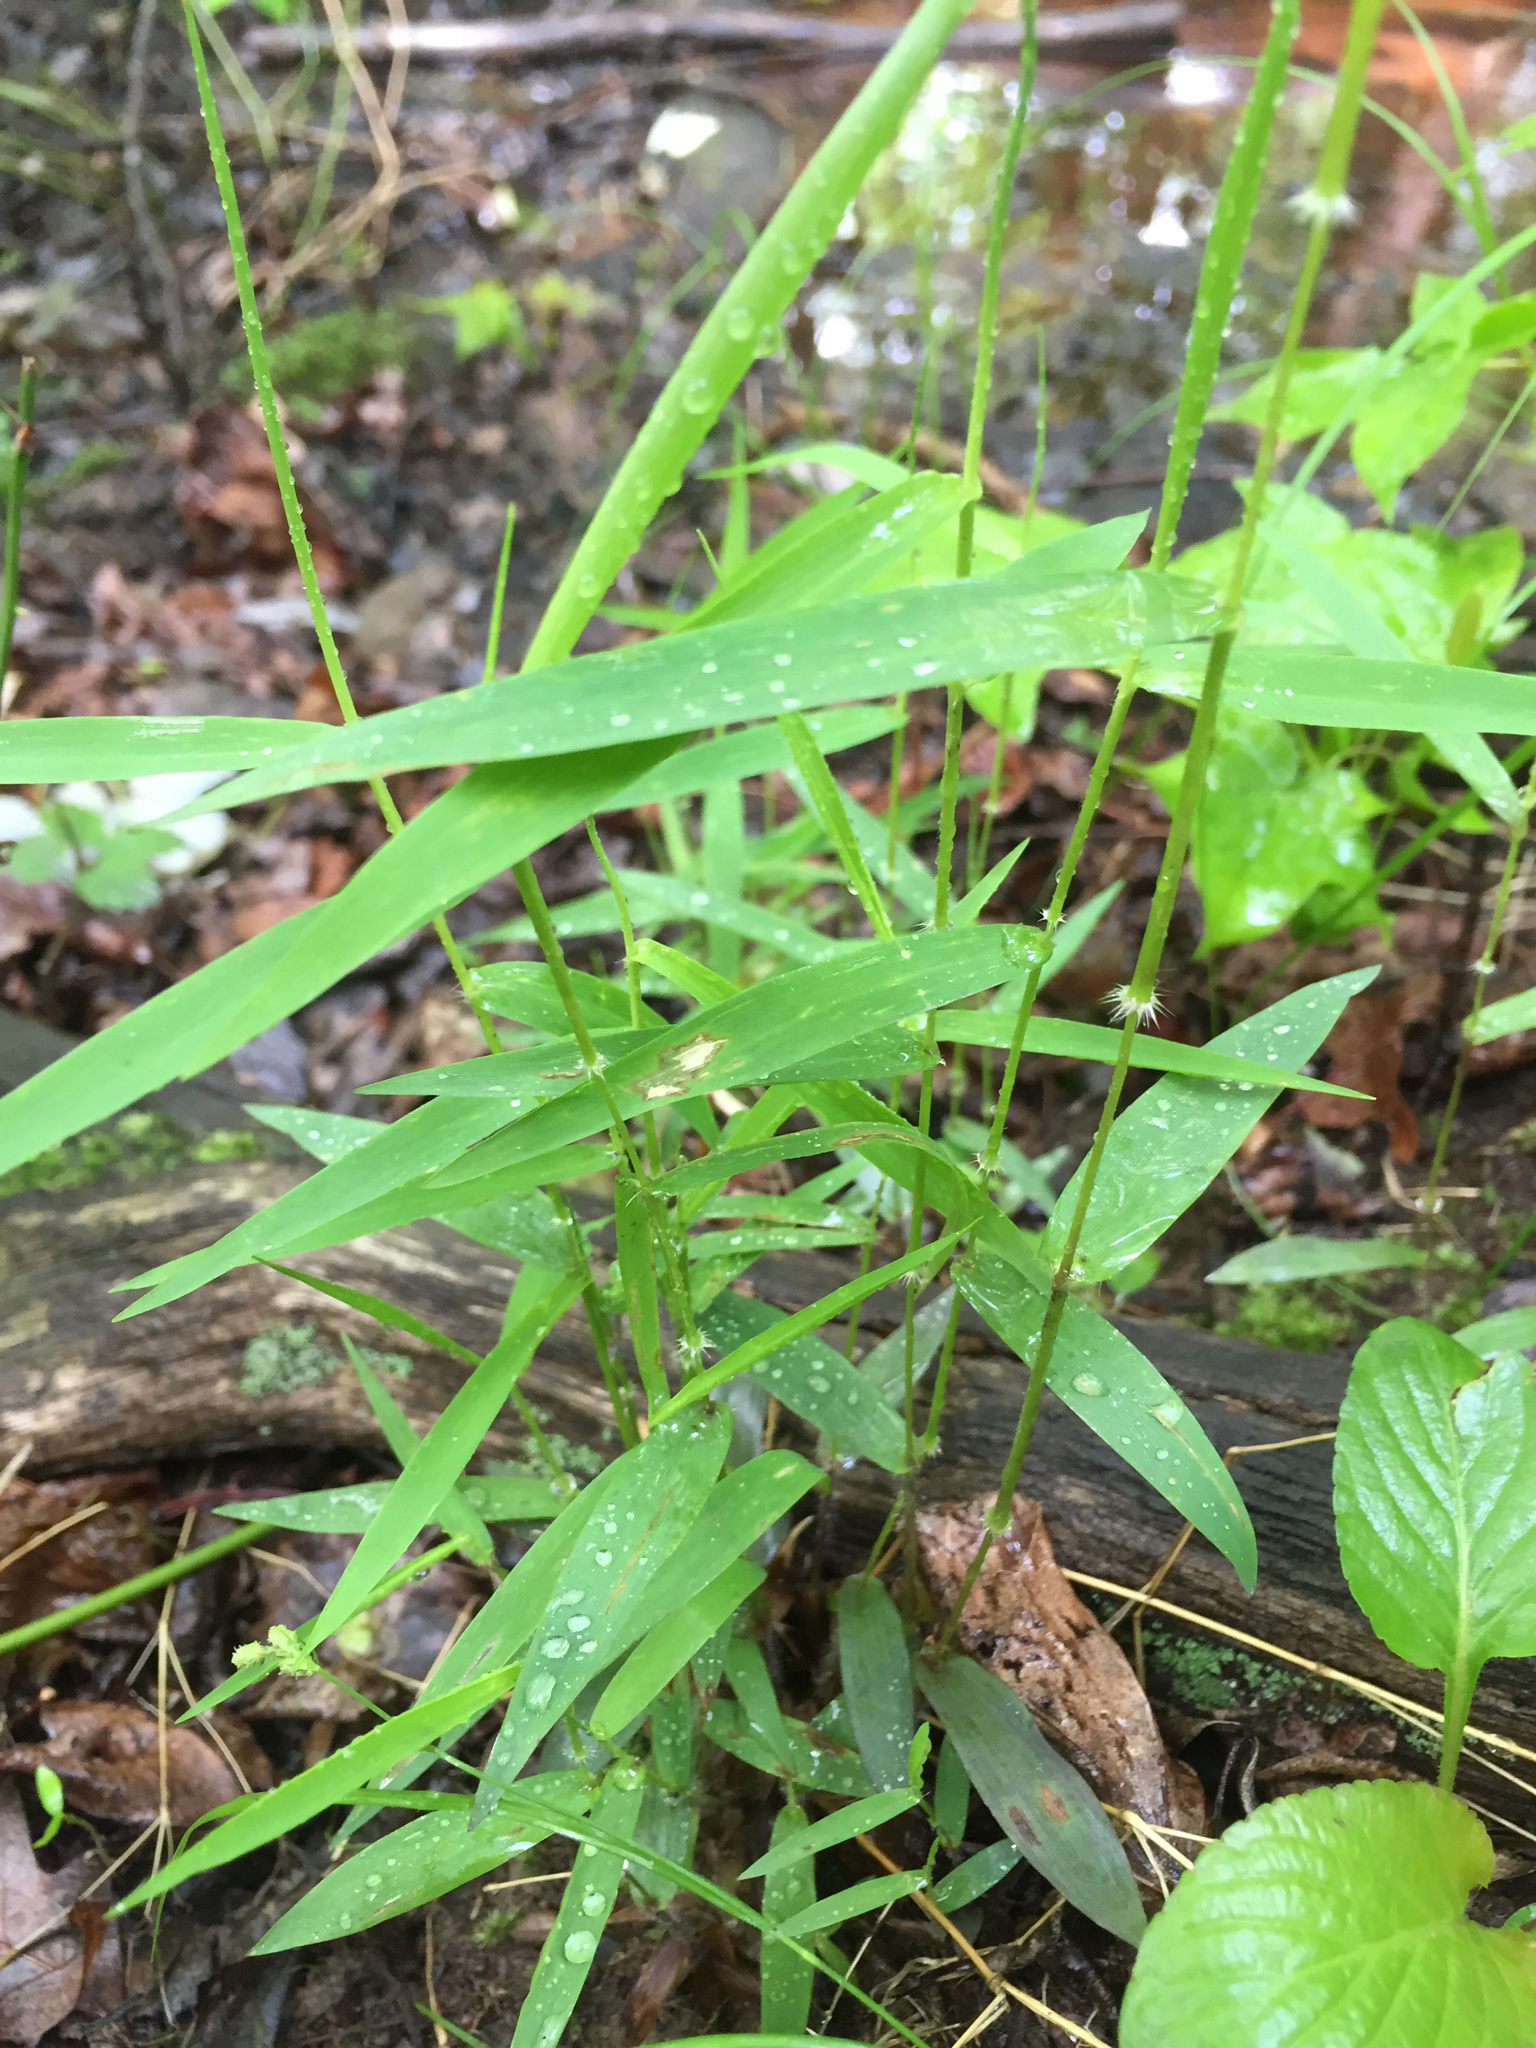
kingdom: Plantae
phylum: Tracheophyta
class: Liliopsida
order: Poales
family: Poaceae
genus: Muhlenbergia
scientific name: Muhlenbergia schreberi
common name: Nimblewill
